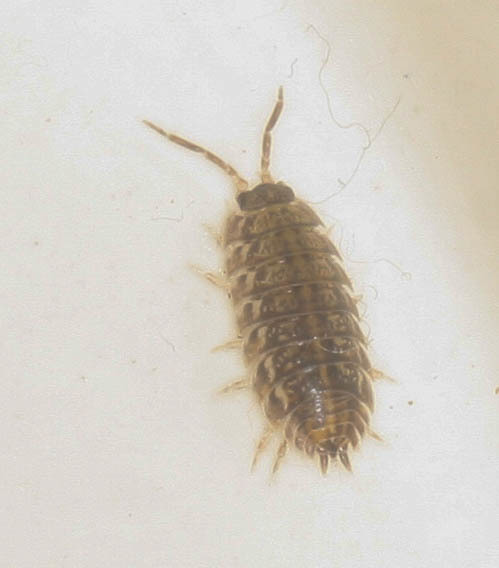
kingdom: Animalia
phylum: Arthropoda
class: Malacostraca
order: Isopoda
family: Trachelipodidae
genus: Trachelipus
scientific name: Trachelipus rathkii
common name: Isopod
